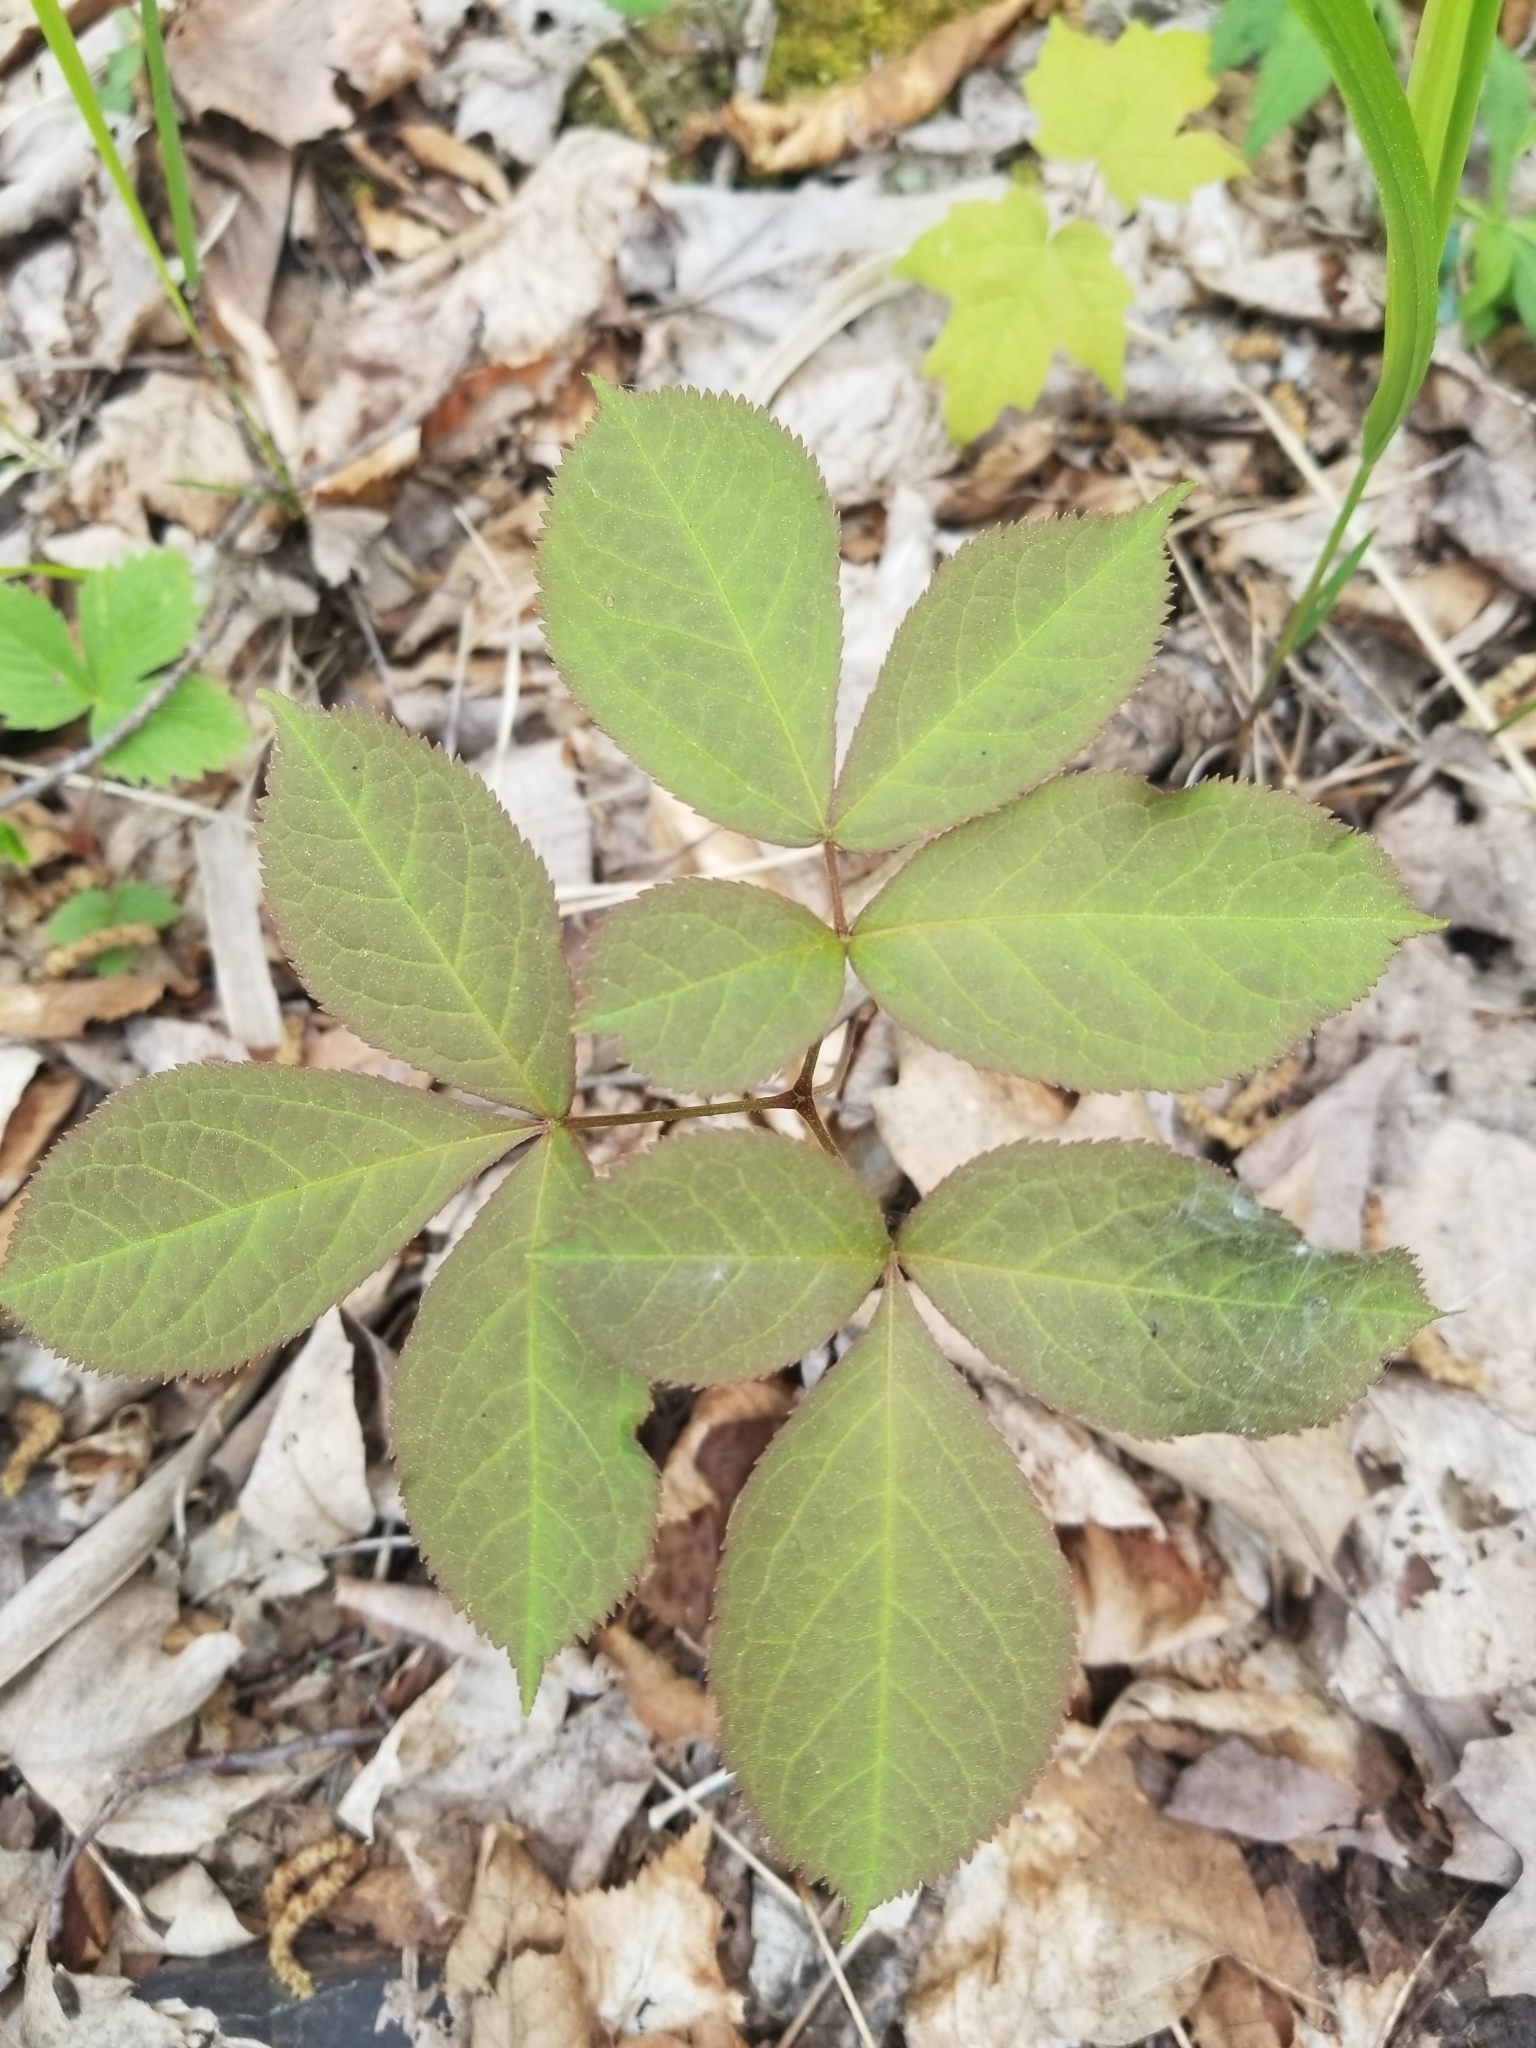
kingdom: Plantae
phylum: Tracheophyta
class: Magnoliopsida
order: Apiales
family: Araliaceae
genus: Aralia
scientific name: Aralia nudicaulis
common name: Wild sarsaparilla
